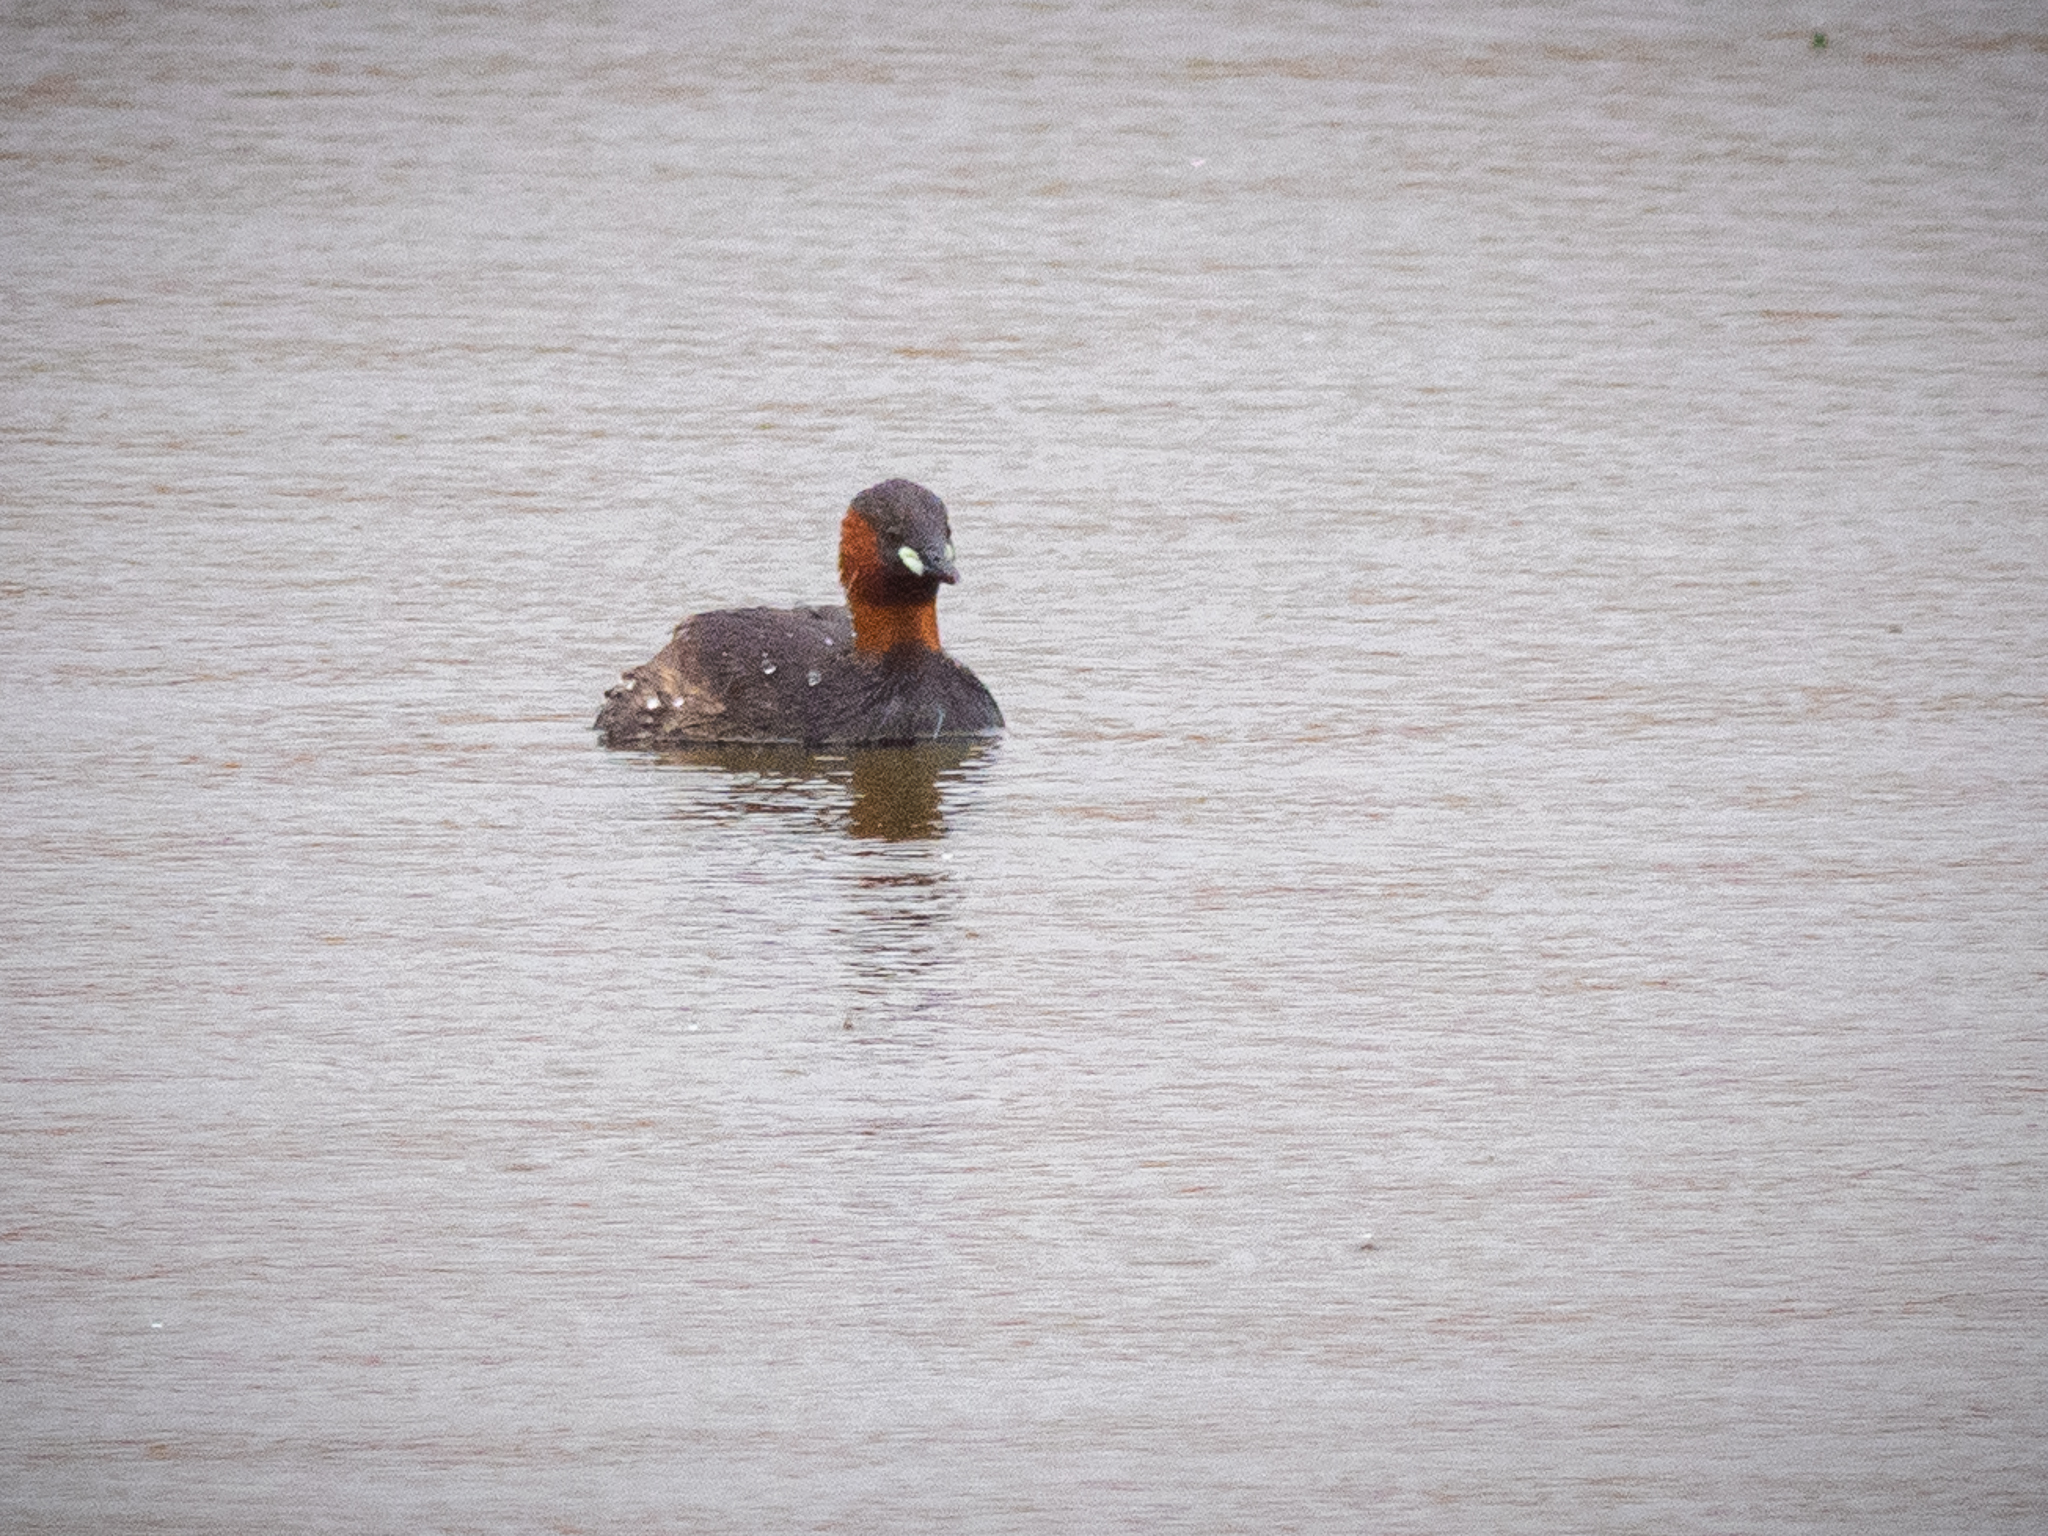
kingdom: Animalia
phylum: Chordata
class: Aves
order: Podicipediformes
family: Podicipedidae
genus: Tachybaptus
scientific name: Tachybaptus ruficollis
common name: Little grebe
